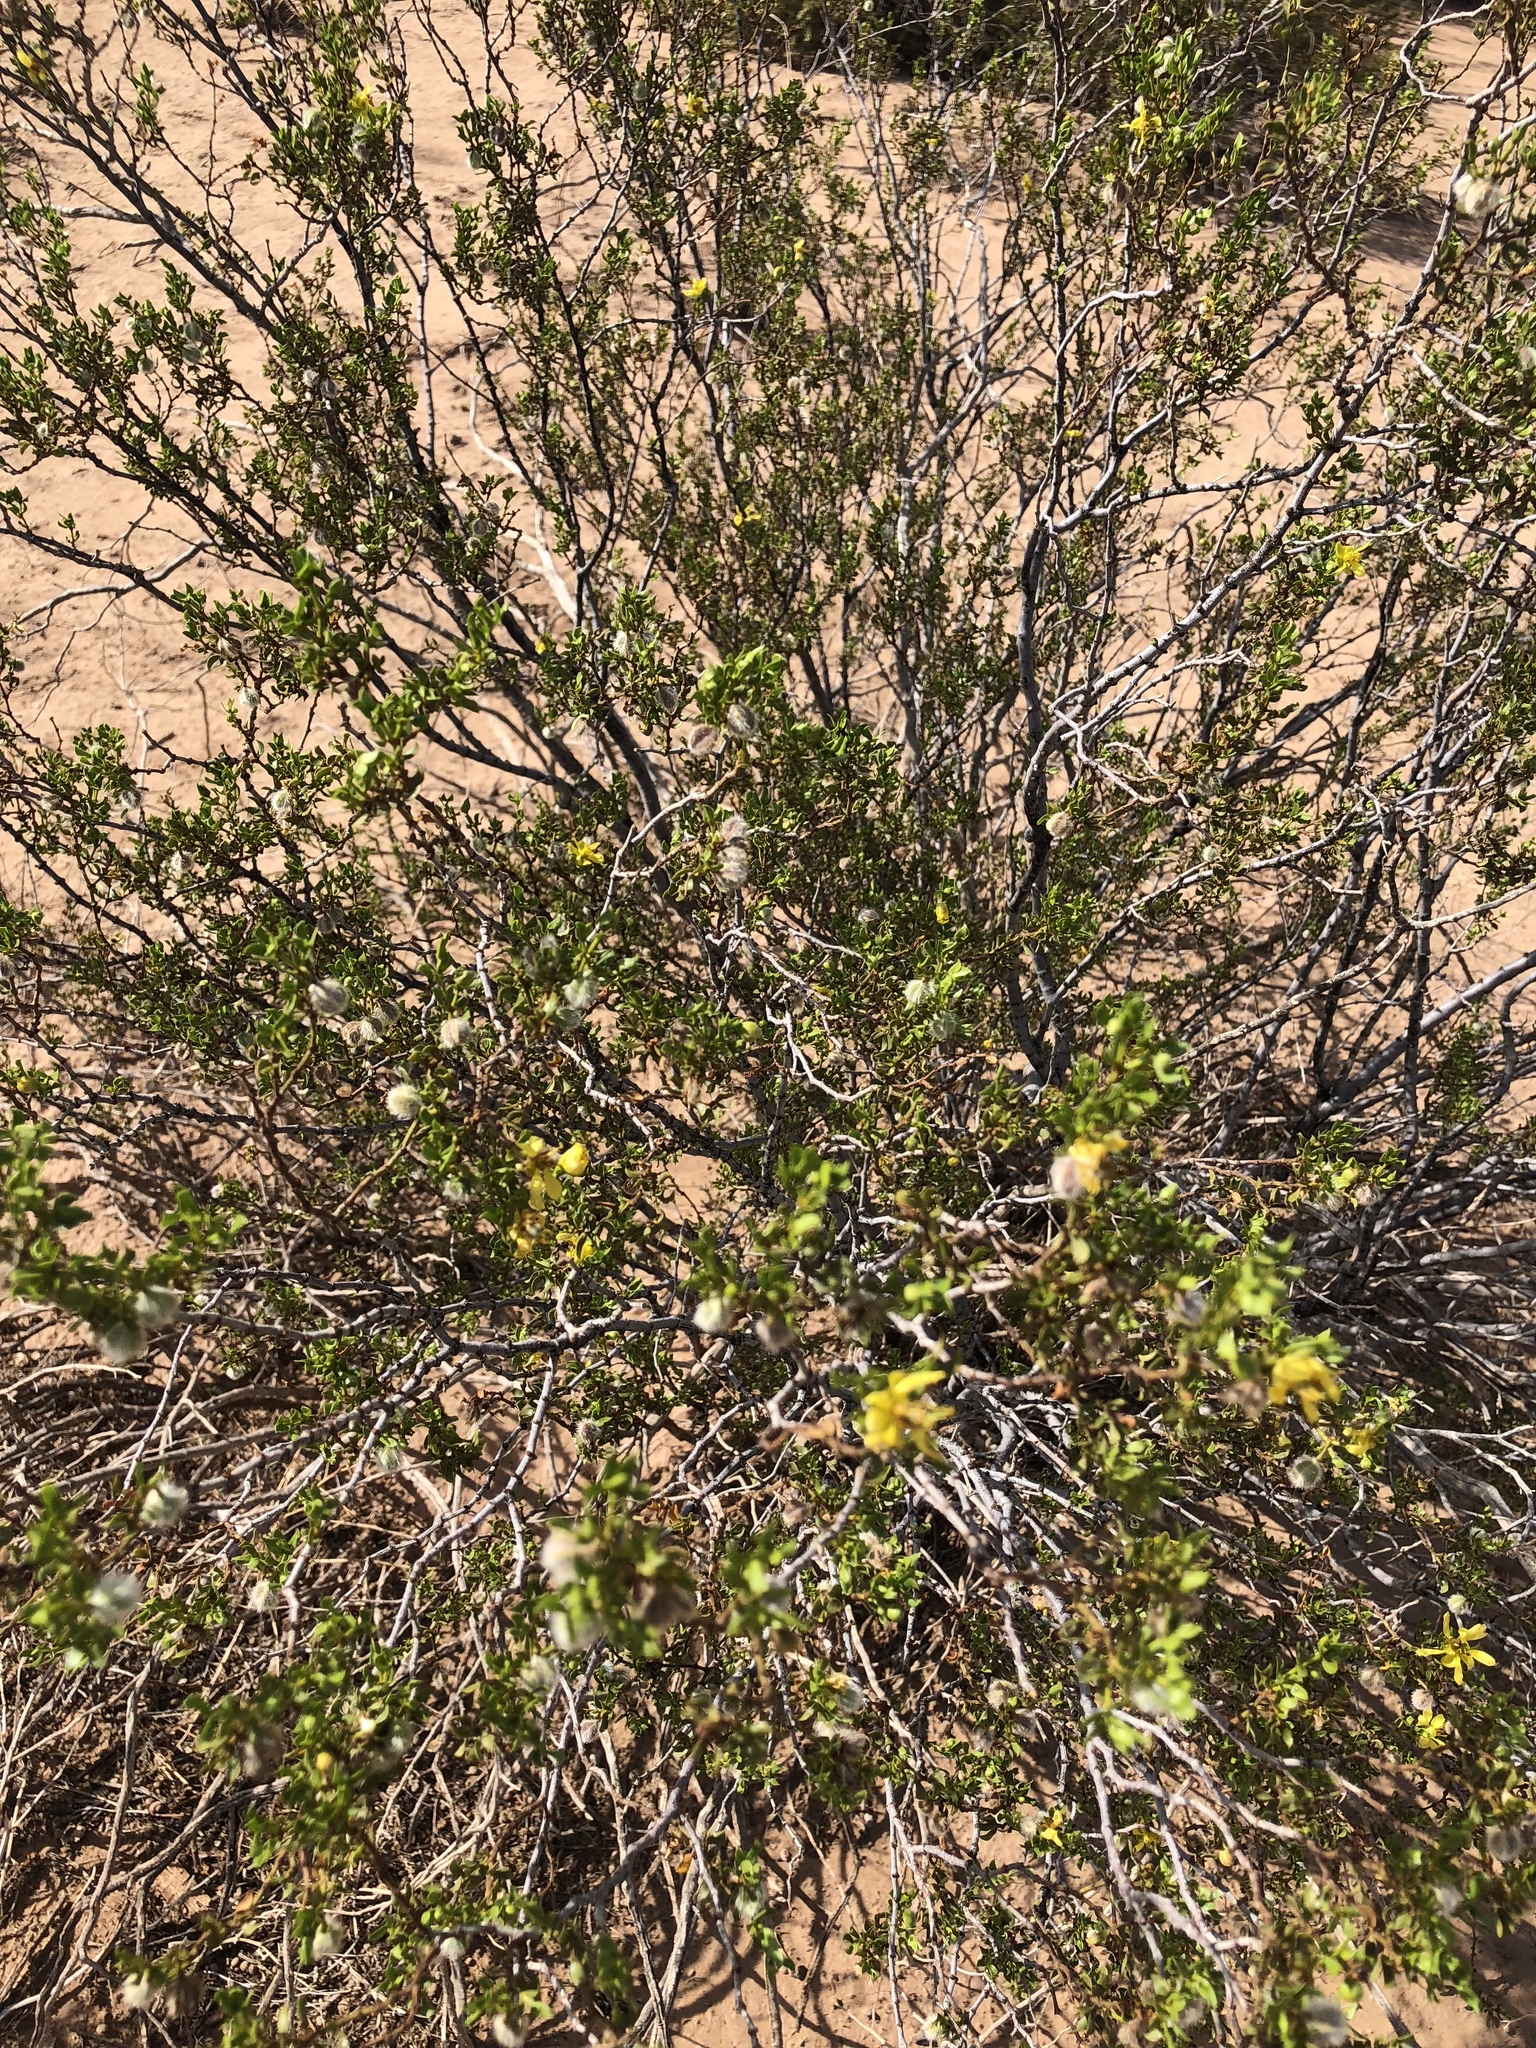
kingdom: Plantae
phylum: Tracheophyta
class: Magnoliopsida
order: Zygophyllales
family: Zygophyllaceae
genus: Larrea
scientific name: Larrea tridentata
